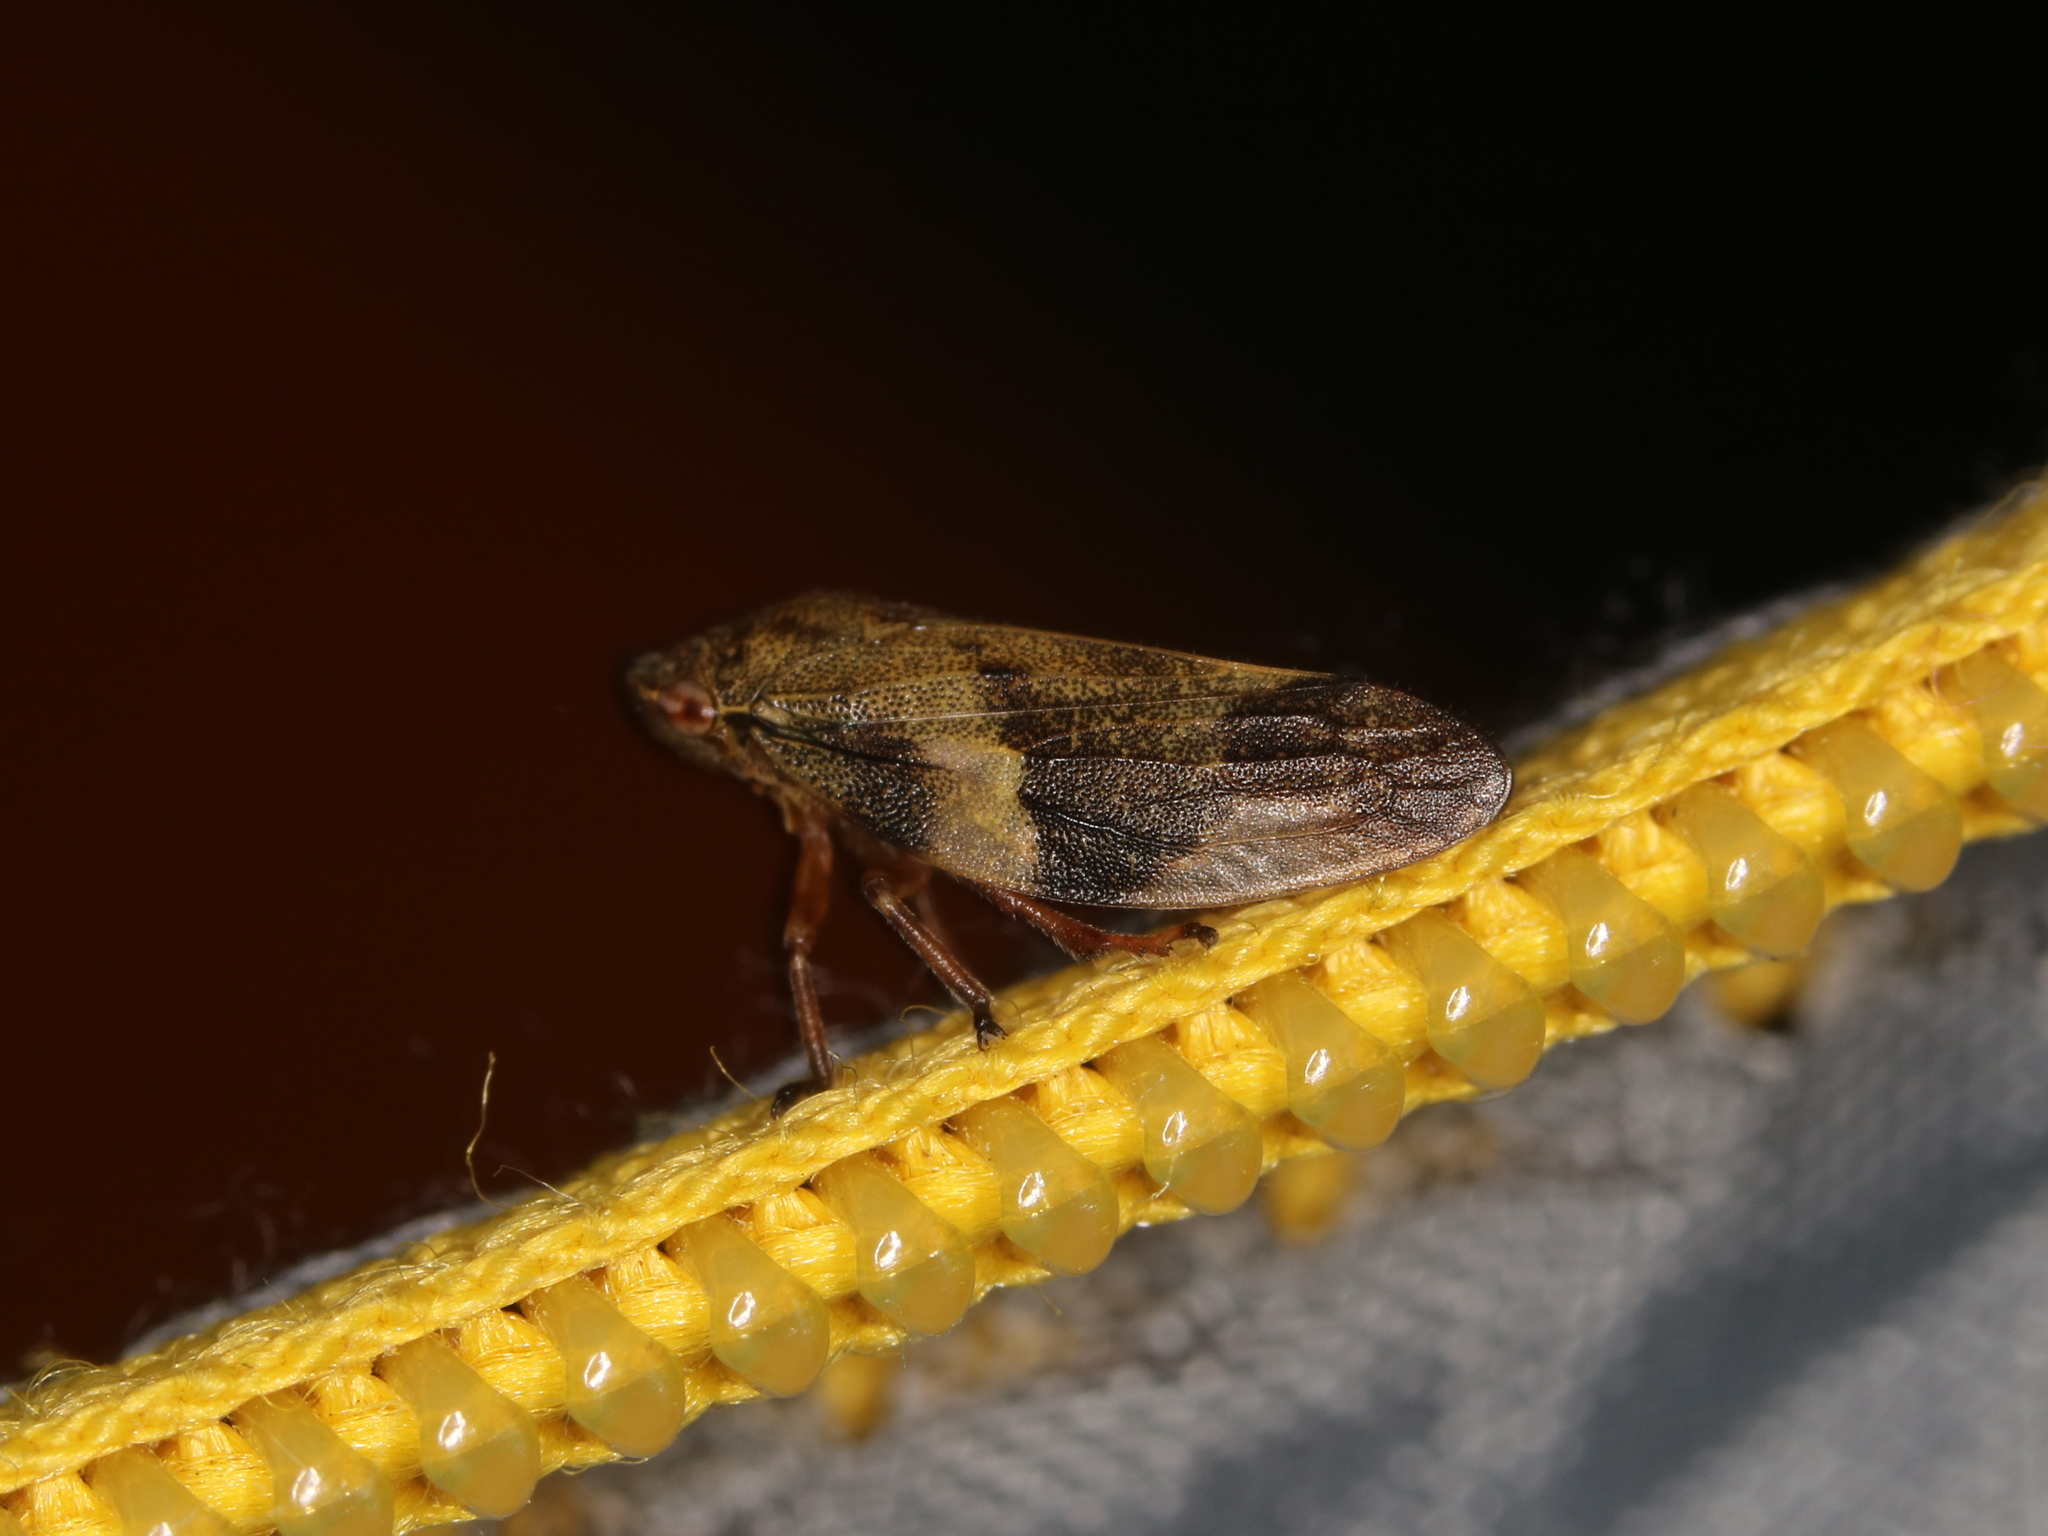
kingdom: Animalia
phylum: Arthropoda
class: Insecta
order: Hemiptera
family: Aphrophoridae
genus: Aphrophora
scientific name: Aphrophora alni
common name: European alder spittlebug
